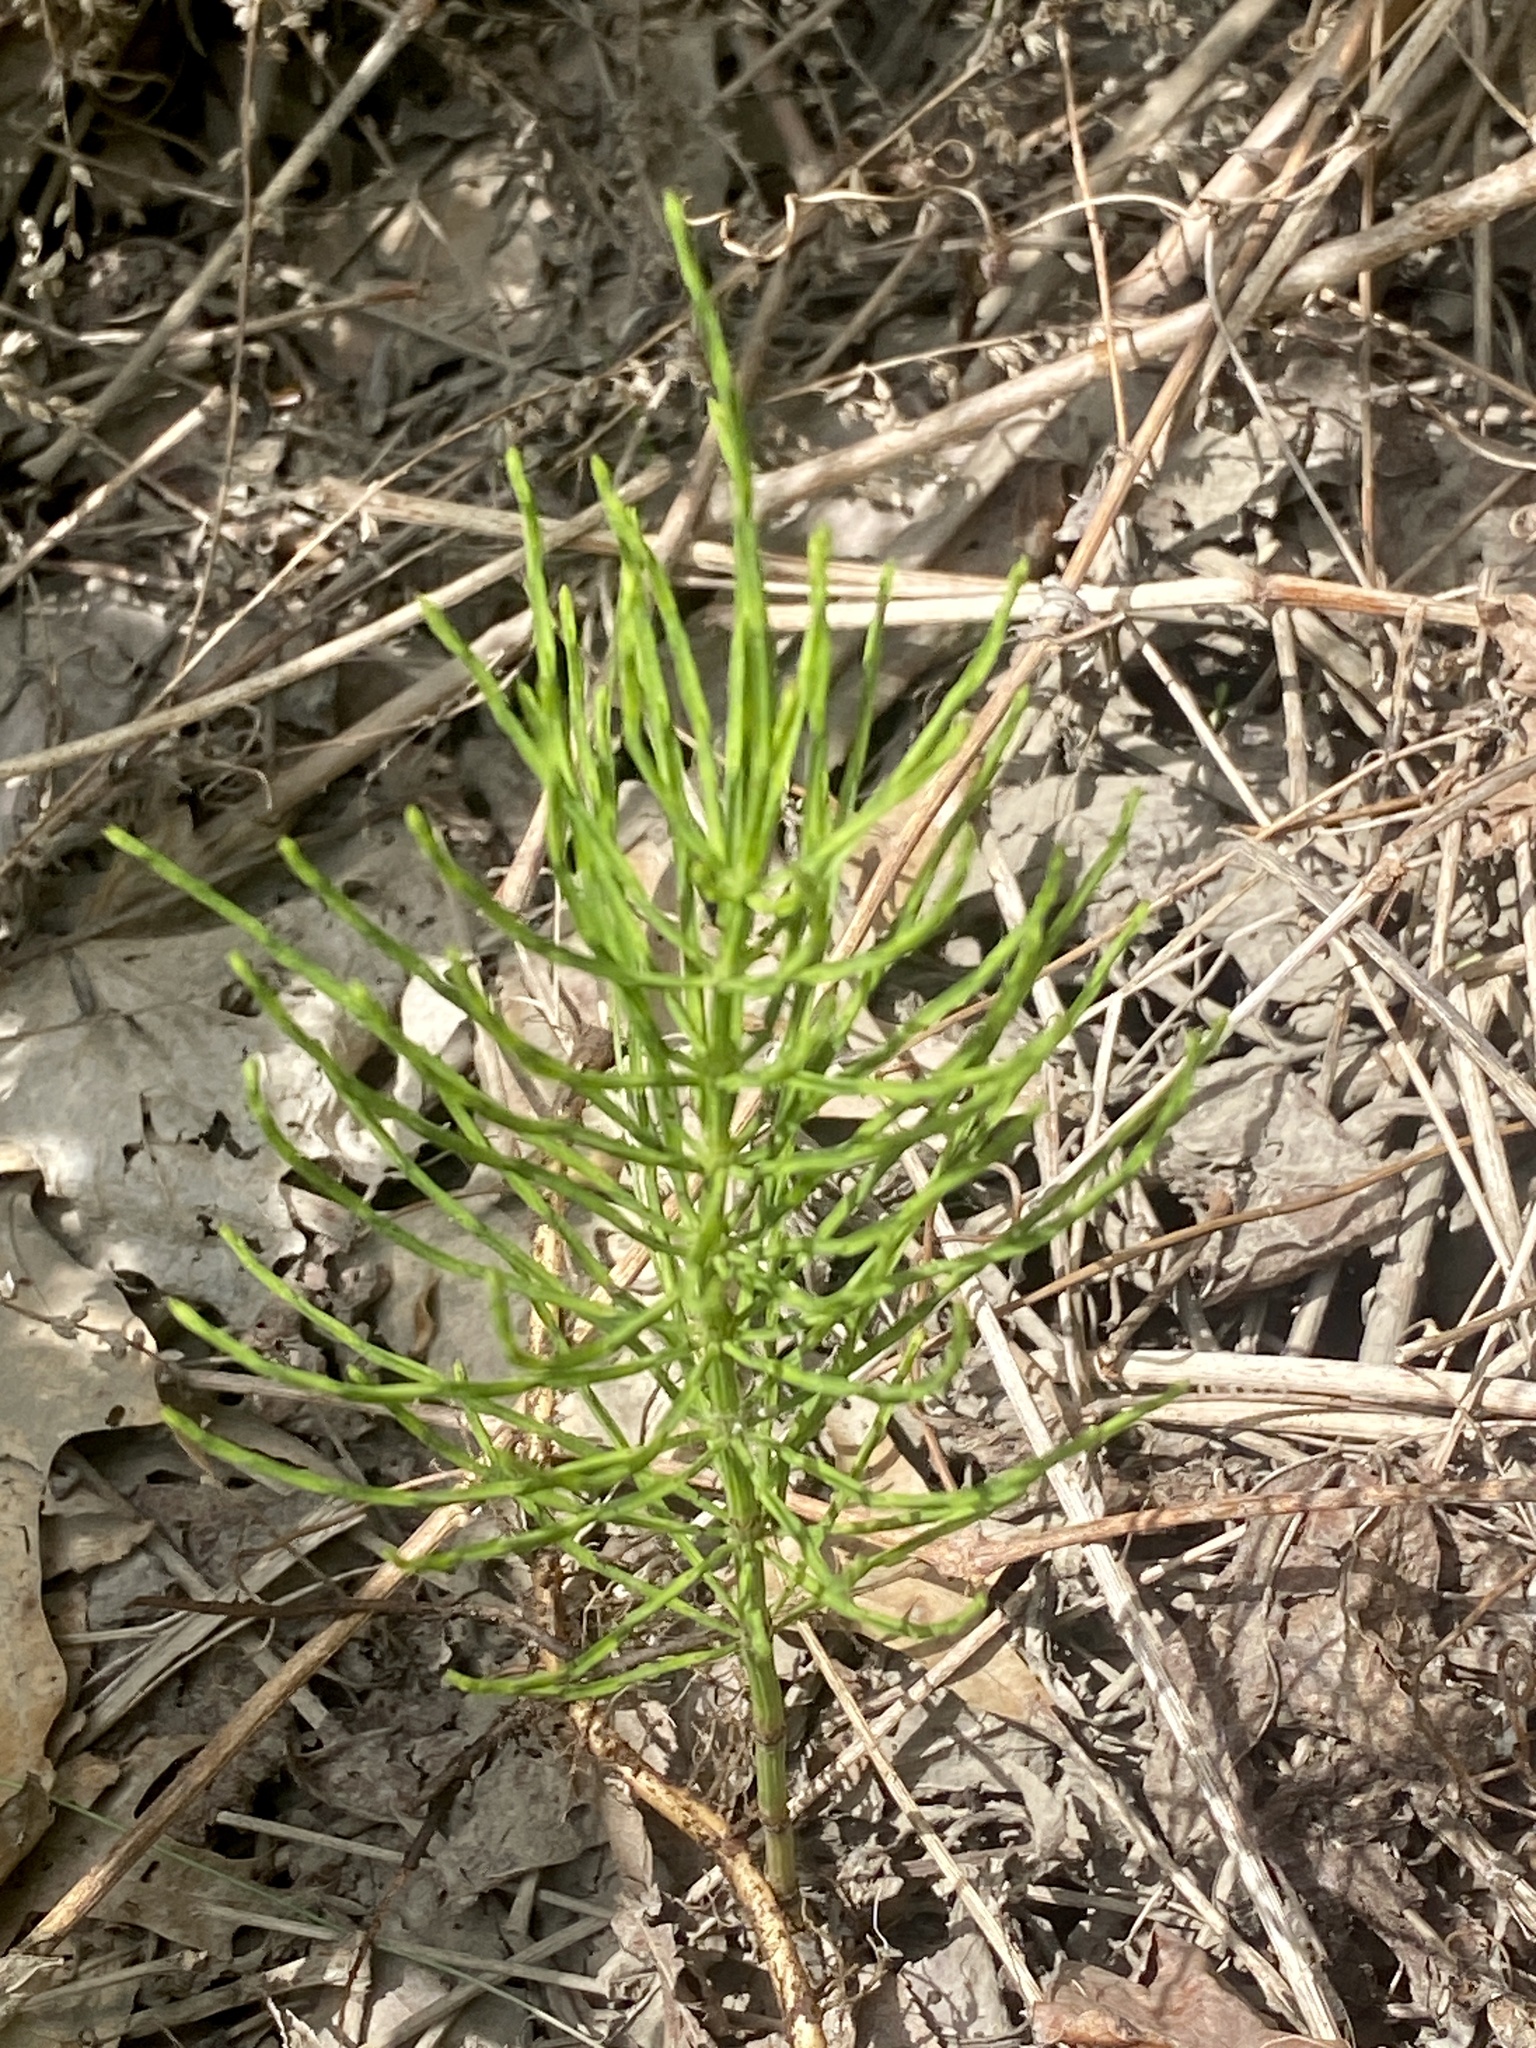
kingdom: Plantae
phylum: Tracheophyta
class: Polypodiopsida
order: Equisetales
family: Equisetaceae
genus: Equisetum
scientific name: Equisetum arvense
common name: Field horsetail
